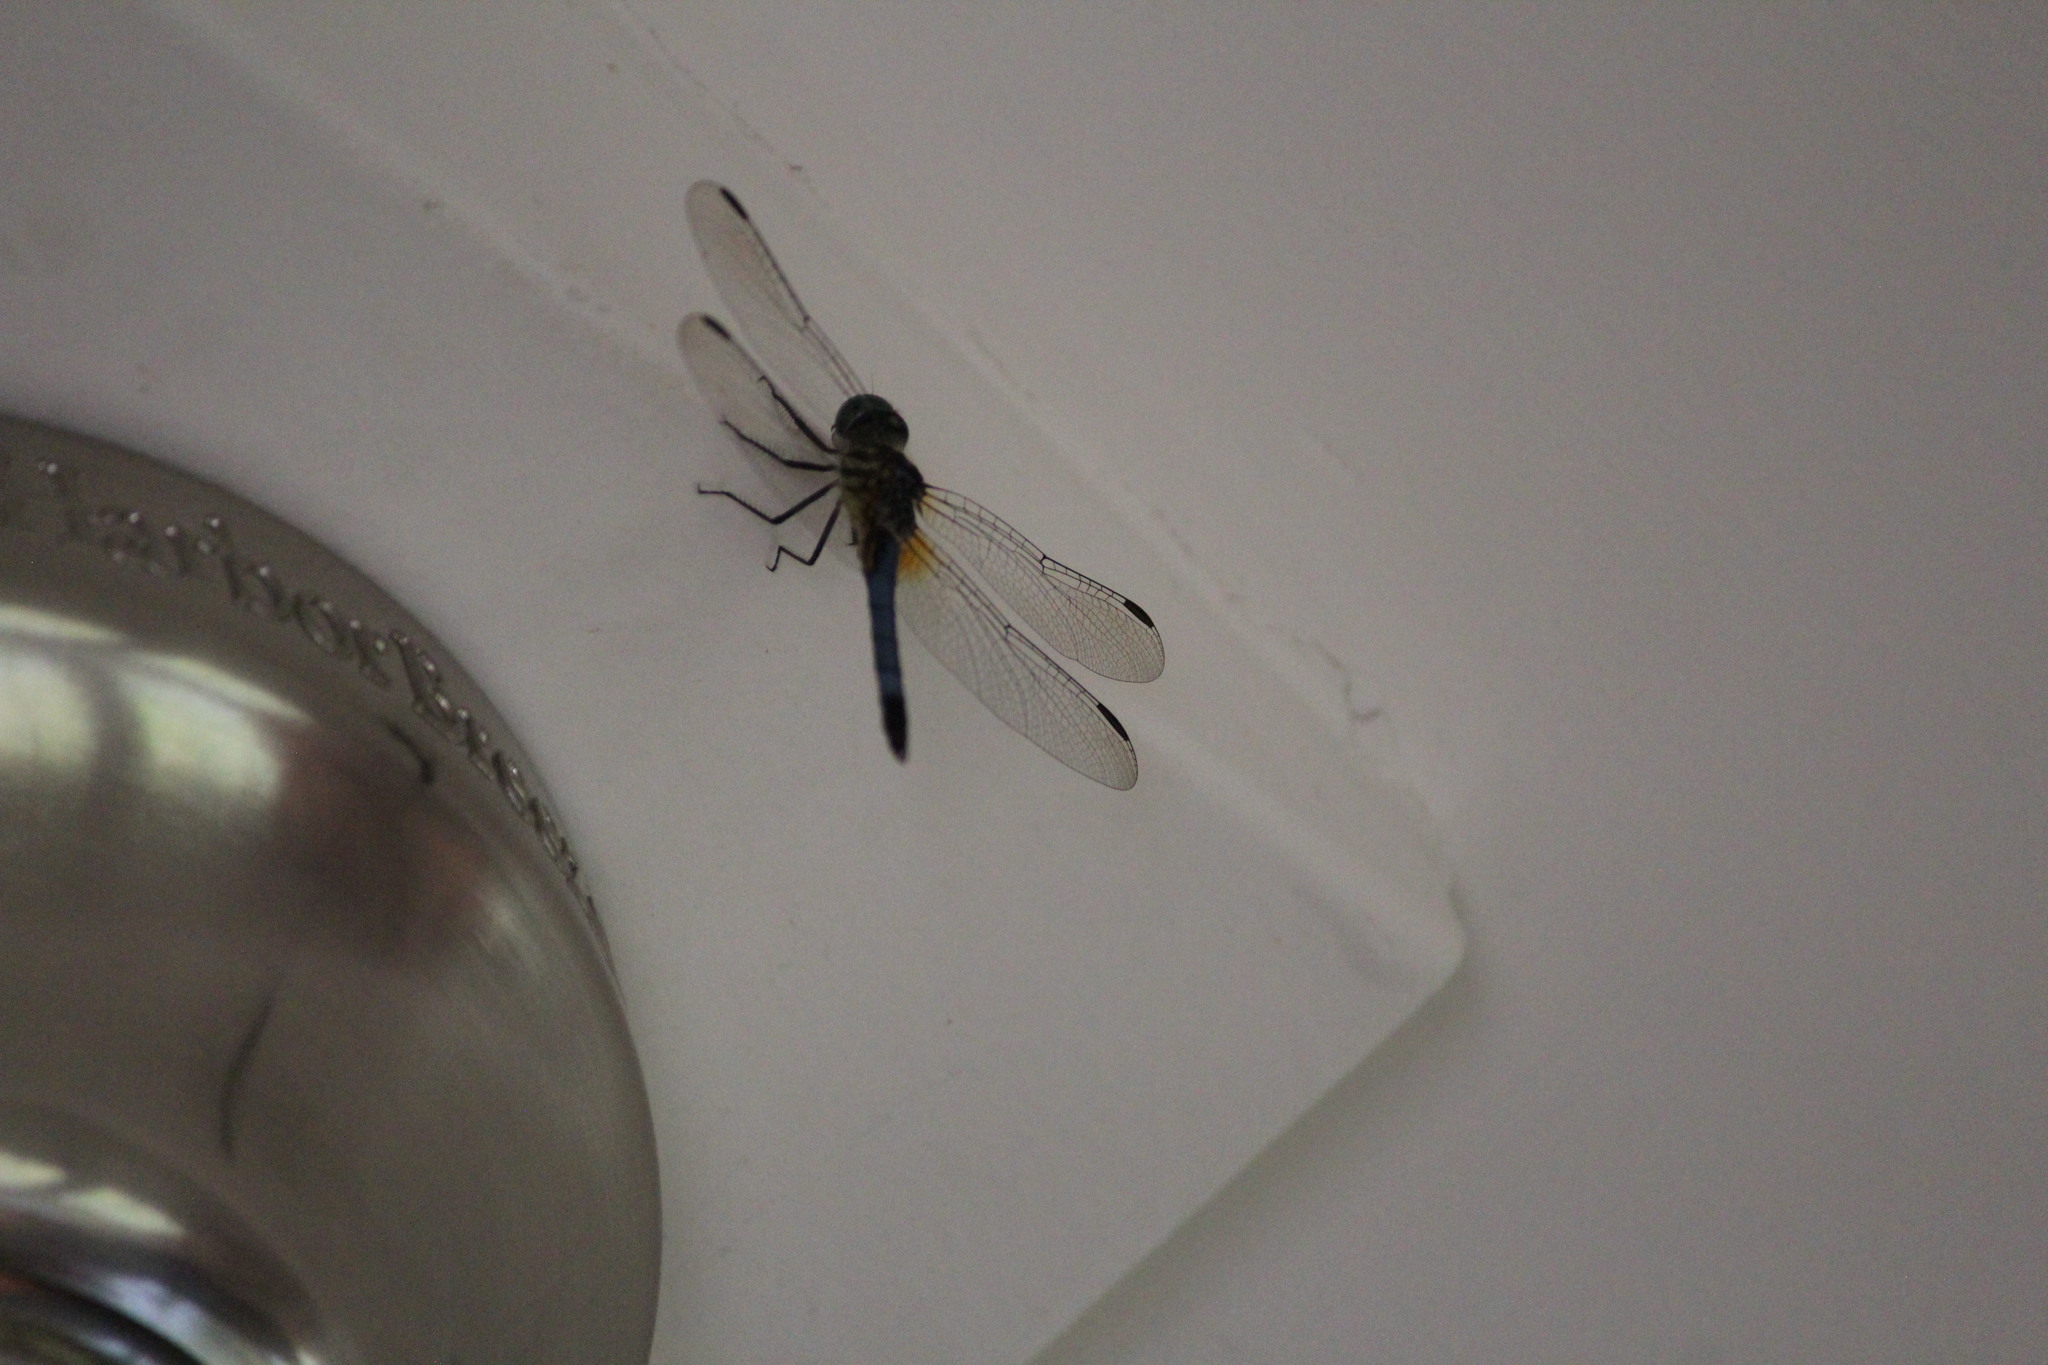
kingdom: Animalia
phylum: Arthropoda
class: Insecta
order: Odonata
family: Libellulidae
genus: Pachydiplax
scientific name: Pachydiplax longipennis
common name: Blue dasher
